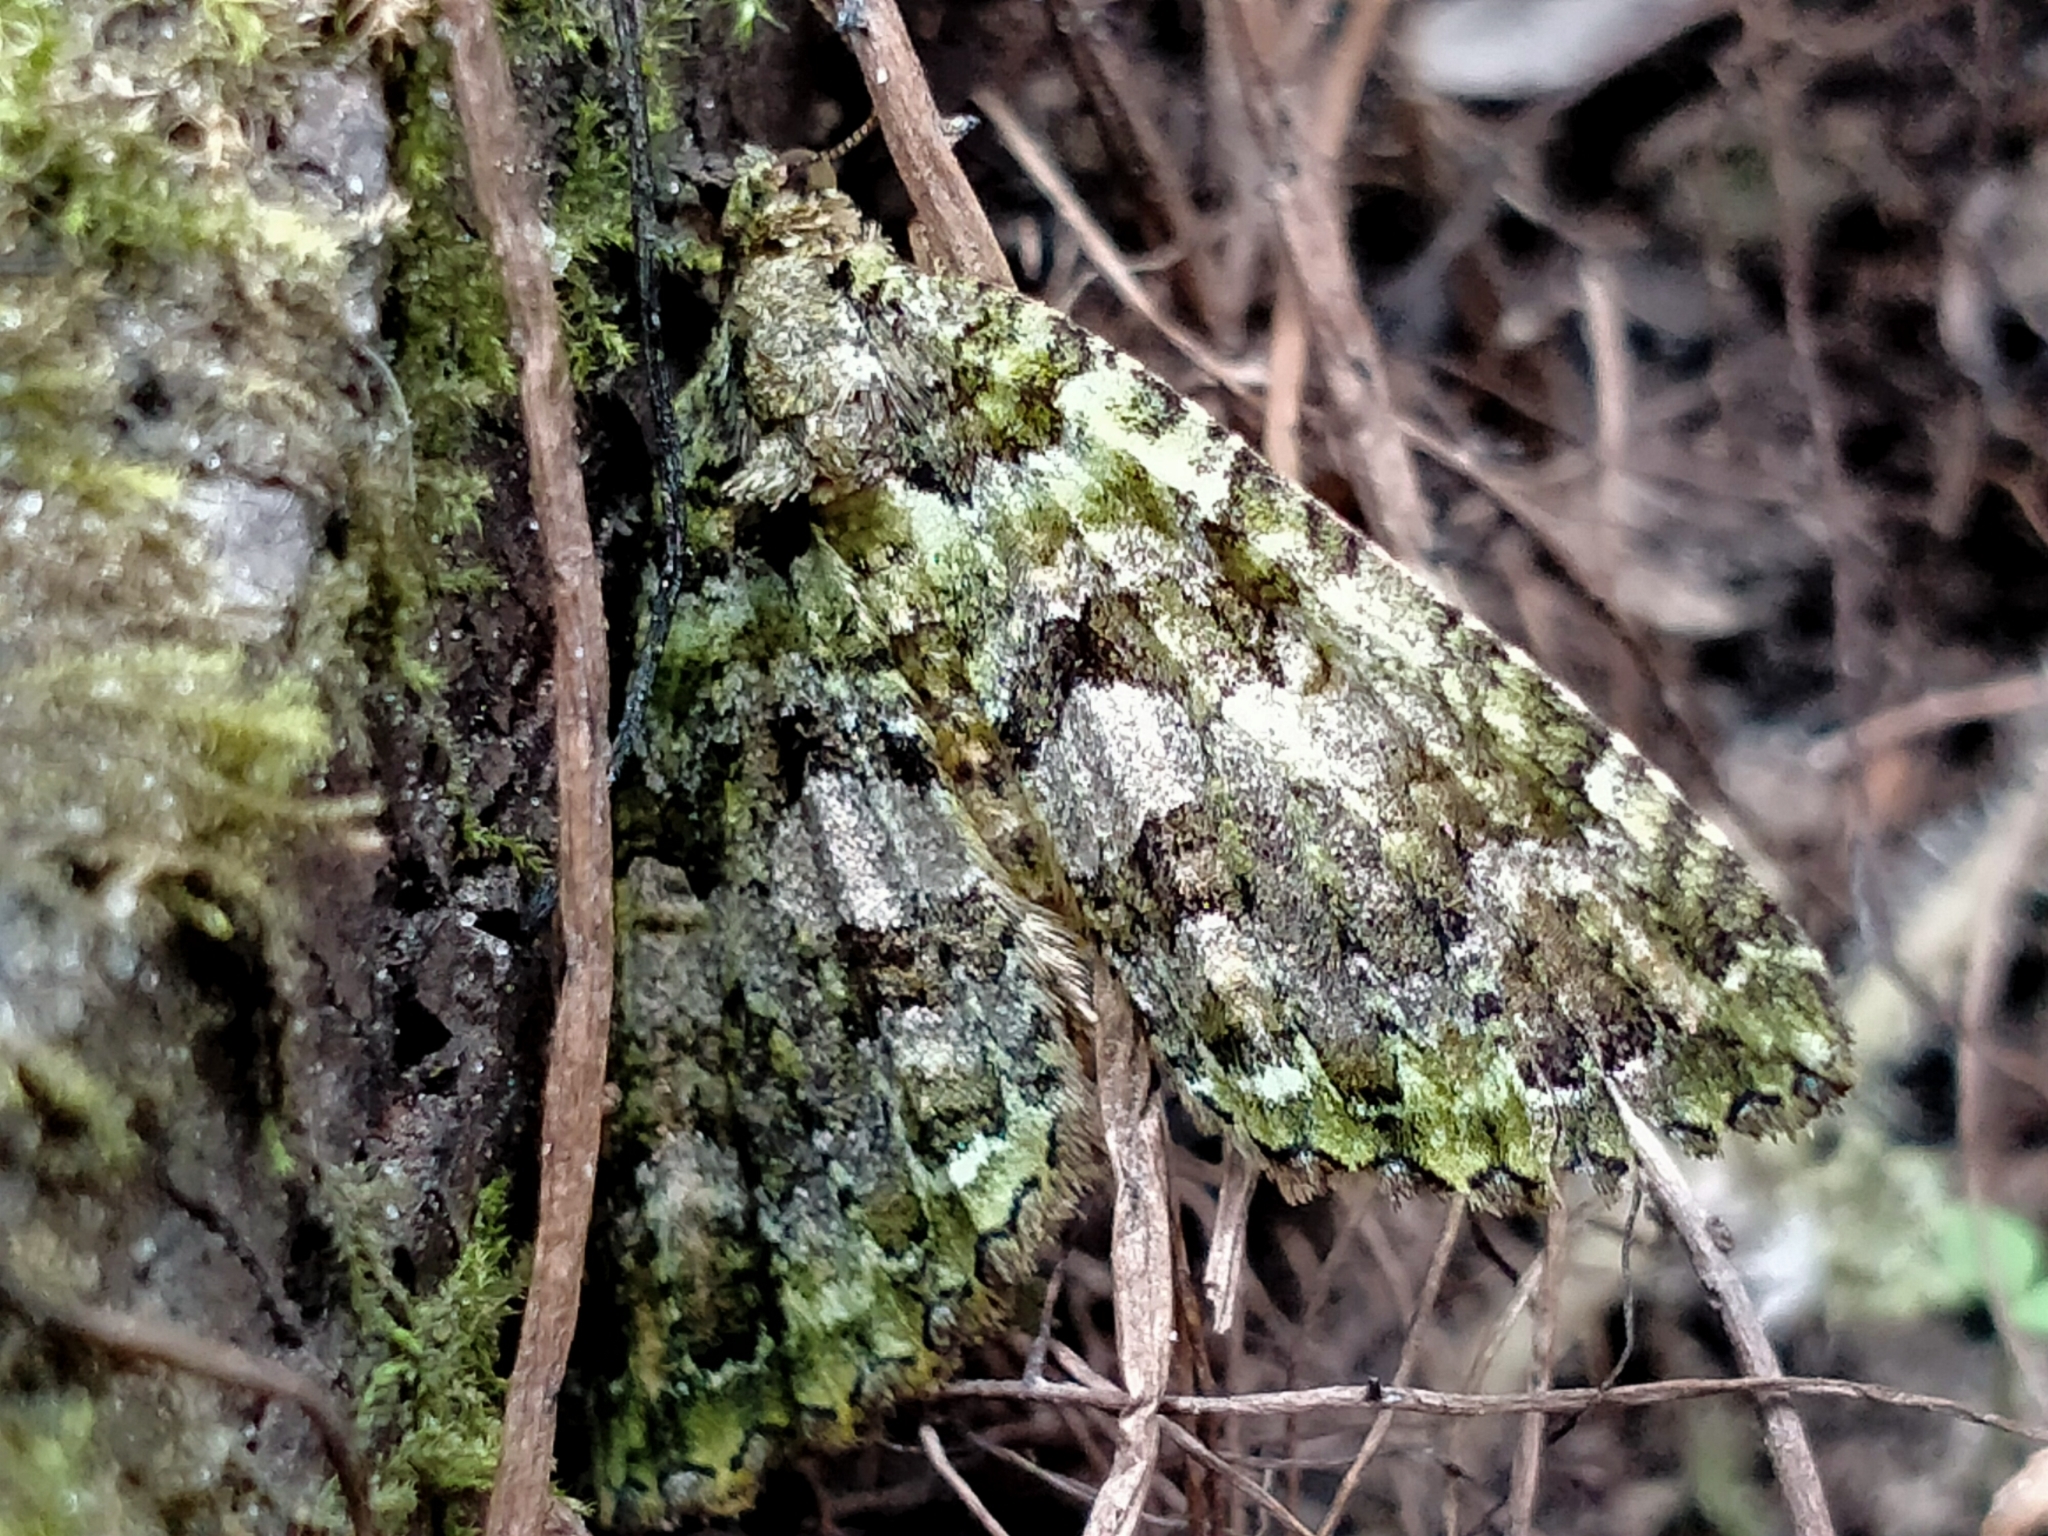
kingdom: Animalia
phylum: Arthropoda
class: Insecta
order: Lepidoptera
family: Geometridae
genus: Austrocidaria
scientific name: Austrocidaria similata
